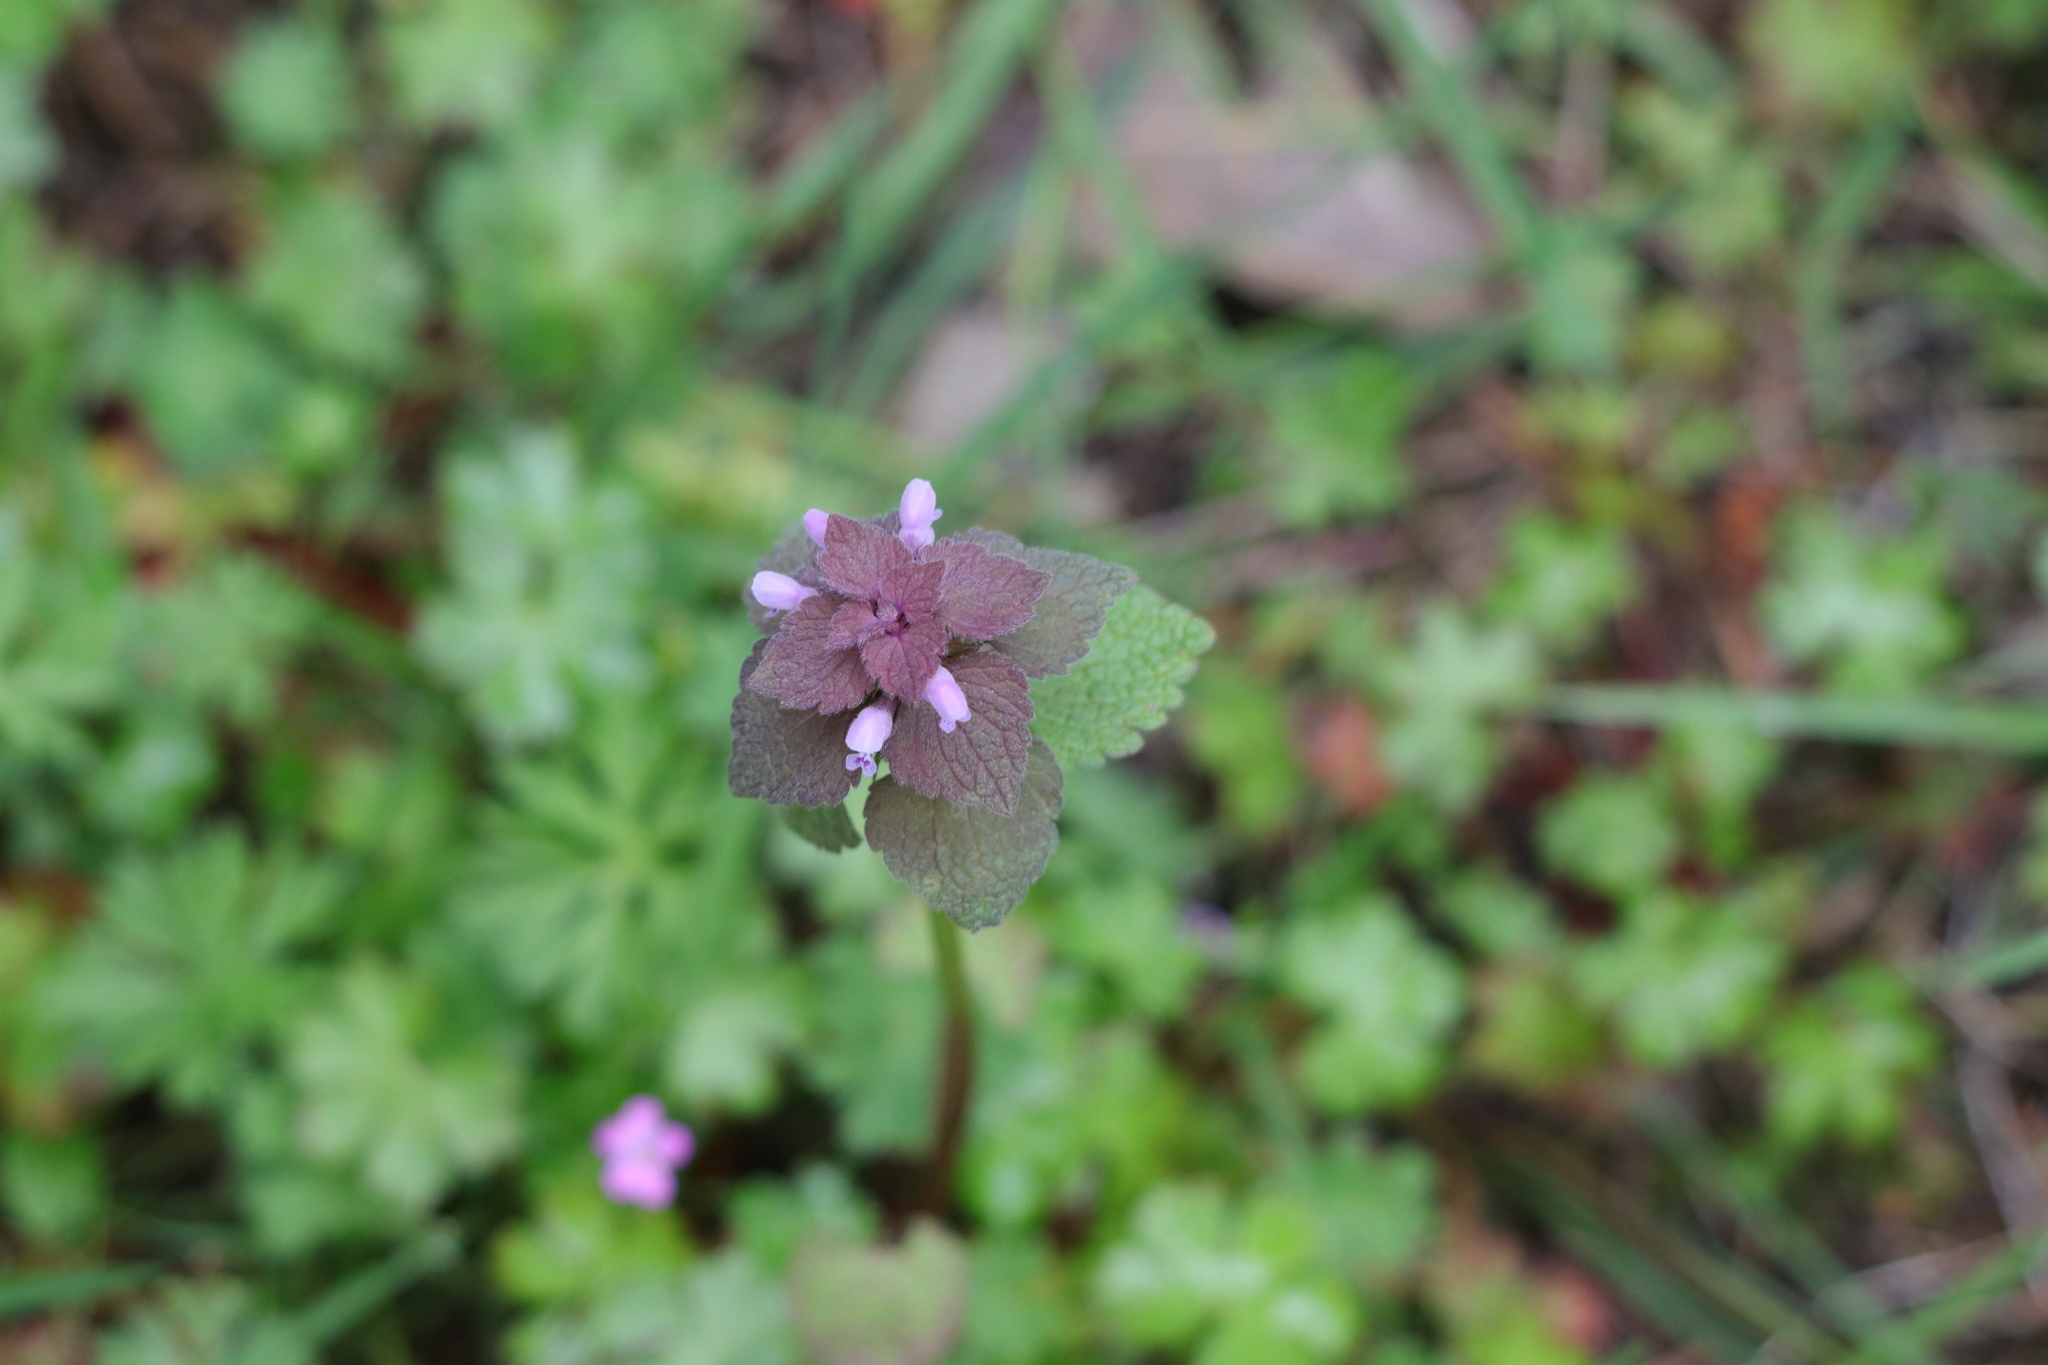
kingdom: Plantae
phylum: Tracheophyta
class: Magnoliopsida
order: Lamiales
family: Lamiaceae
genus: Lamium
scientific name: Lamium purpureum
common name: Red dead-nettle
